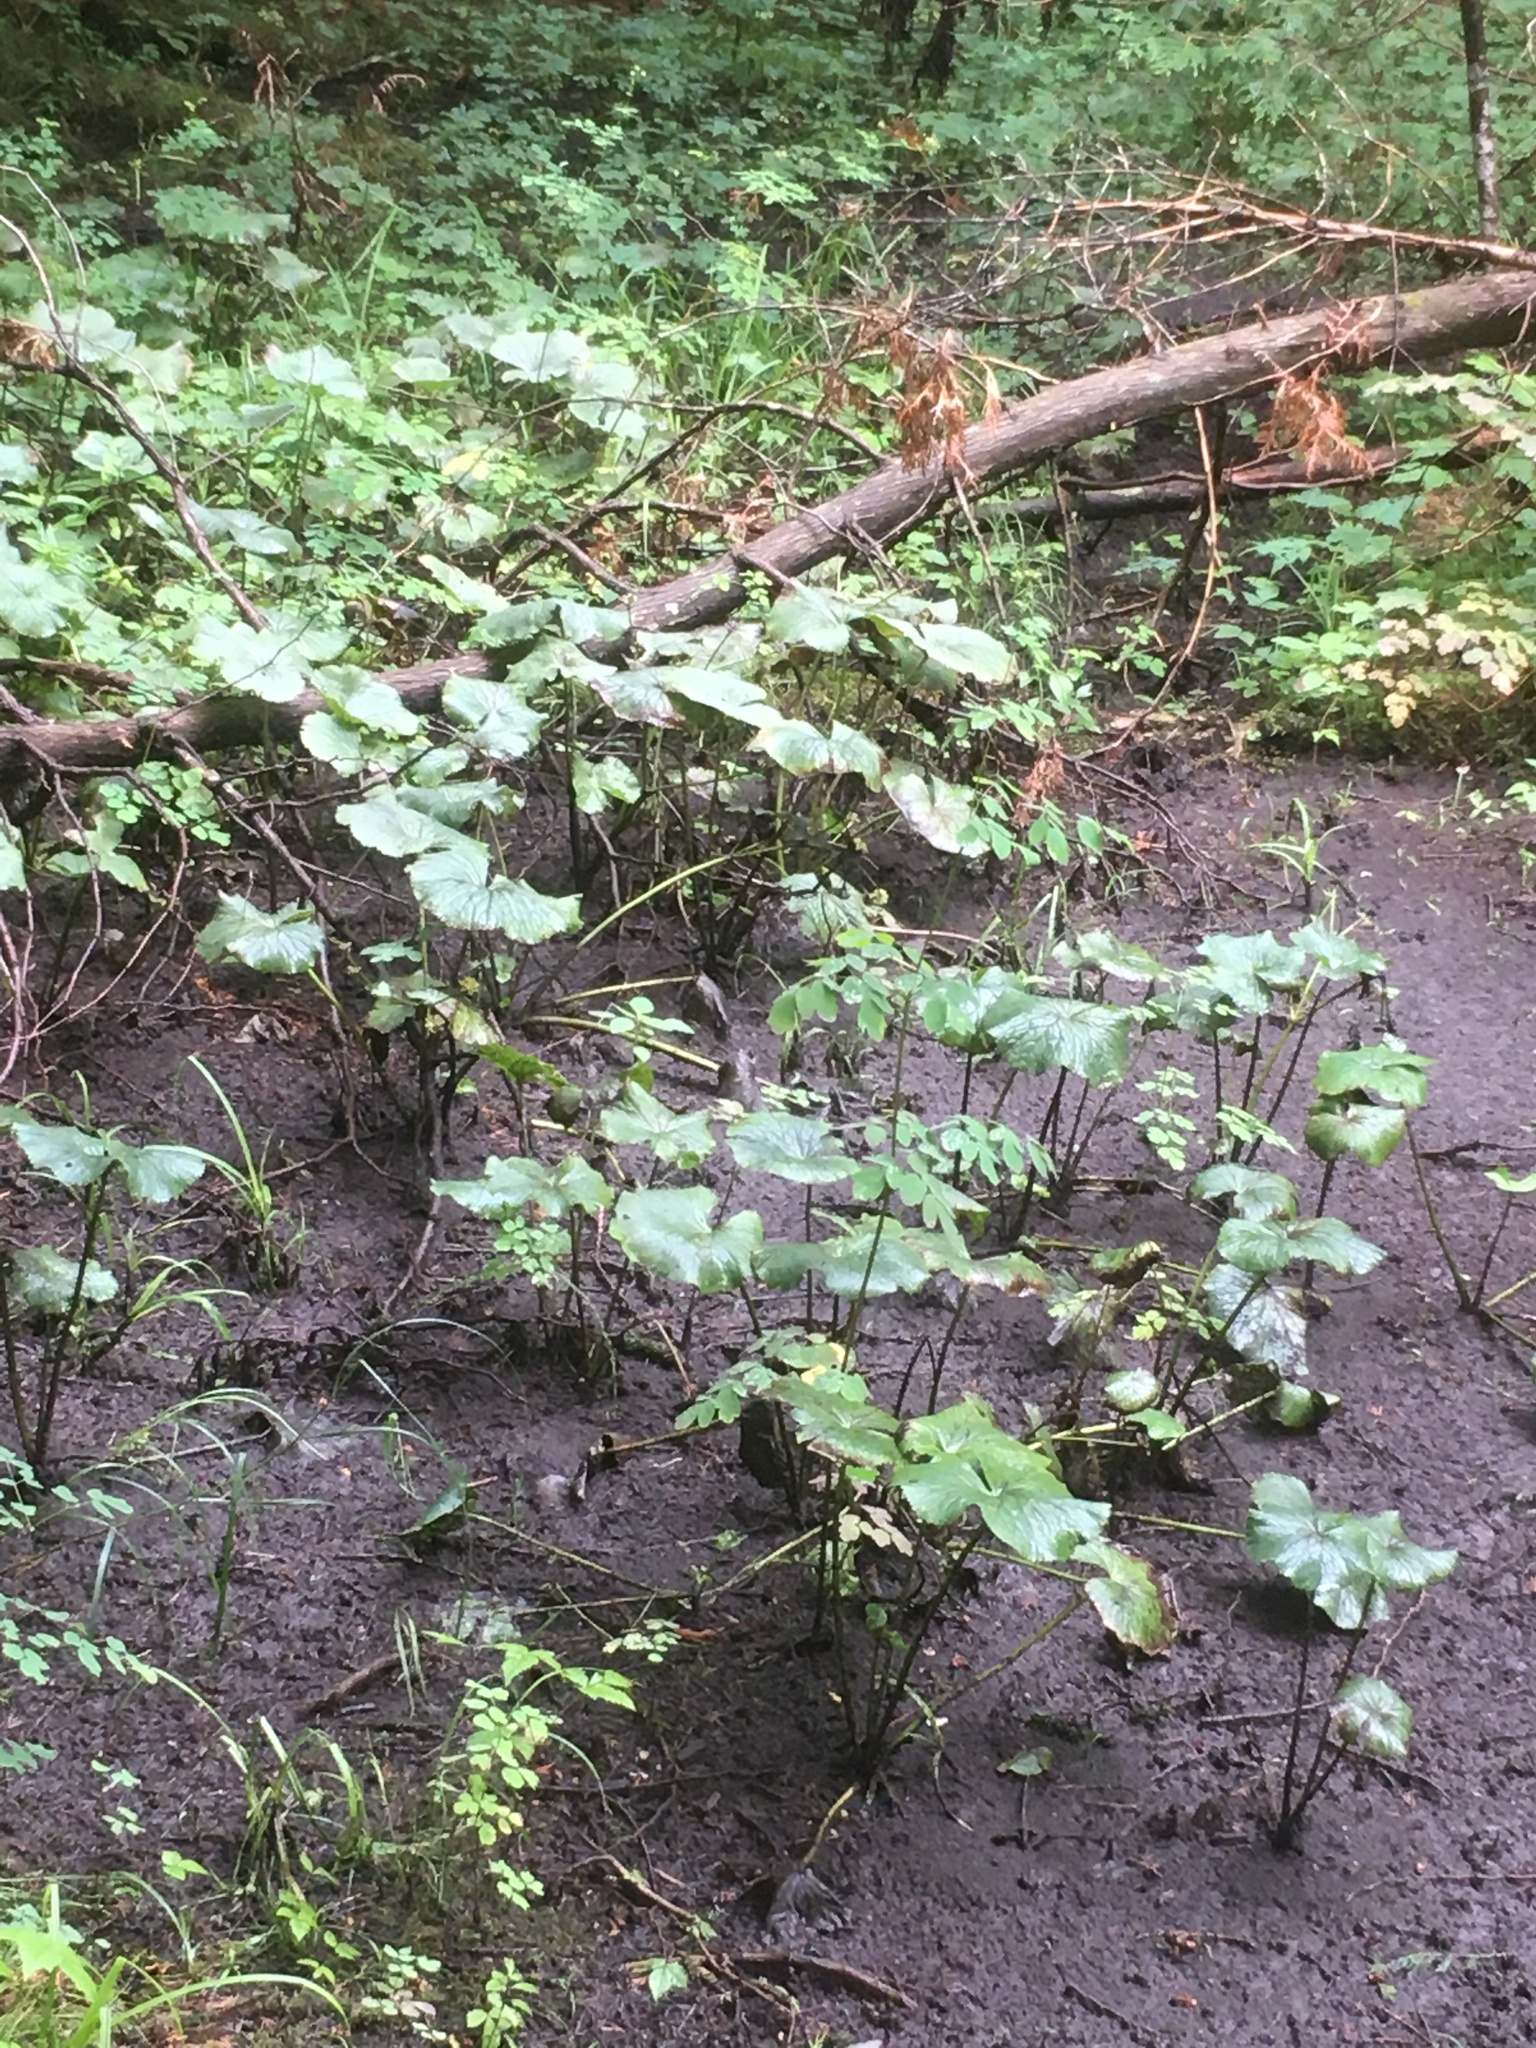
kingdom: Plantae
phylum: Tracheophyta
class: Magnoliopsida
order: Ranunculales
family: Ranunculaceae
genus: Caltha
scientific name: Caltha palustris
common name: Marsh marigold
